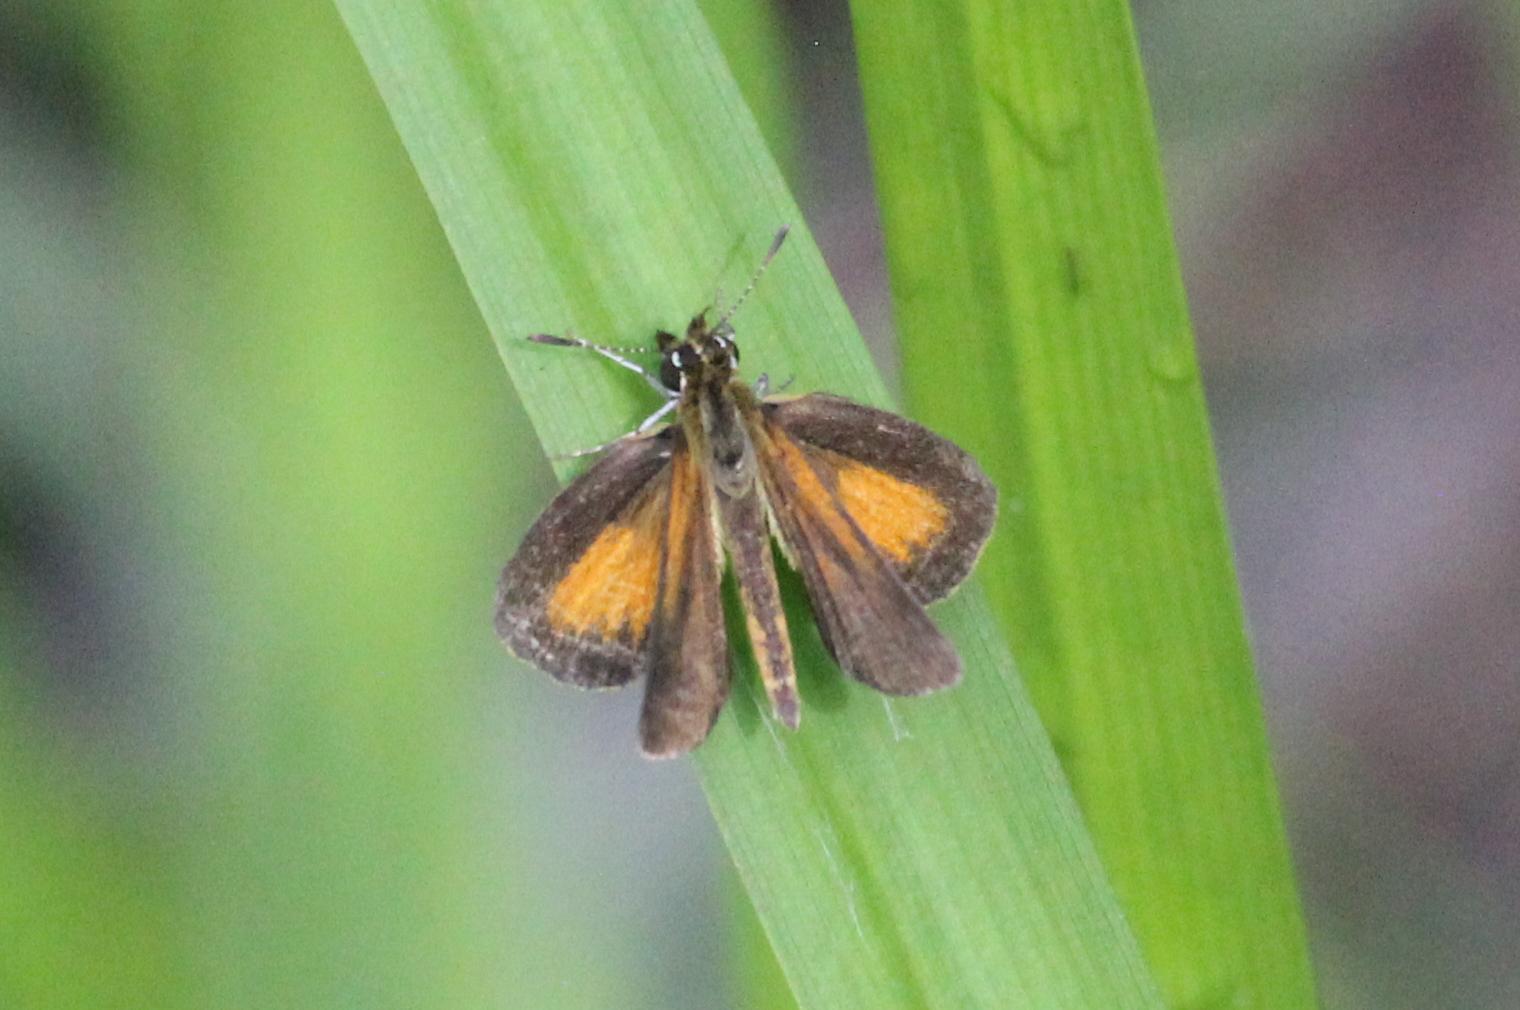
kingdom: Animalia
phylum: Arthropoda
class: Insecta
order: Lepidoptera
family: Hesperiidae
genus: Ancyloxypha
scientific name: Ancyloxypha numitor
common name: Least skipper
